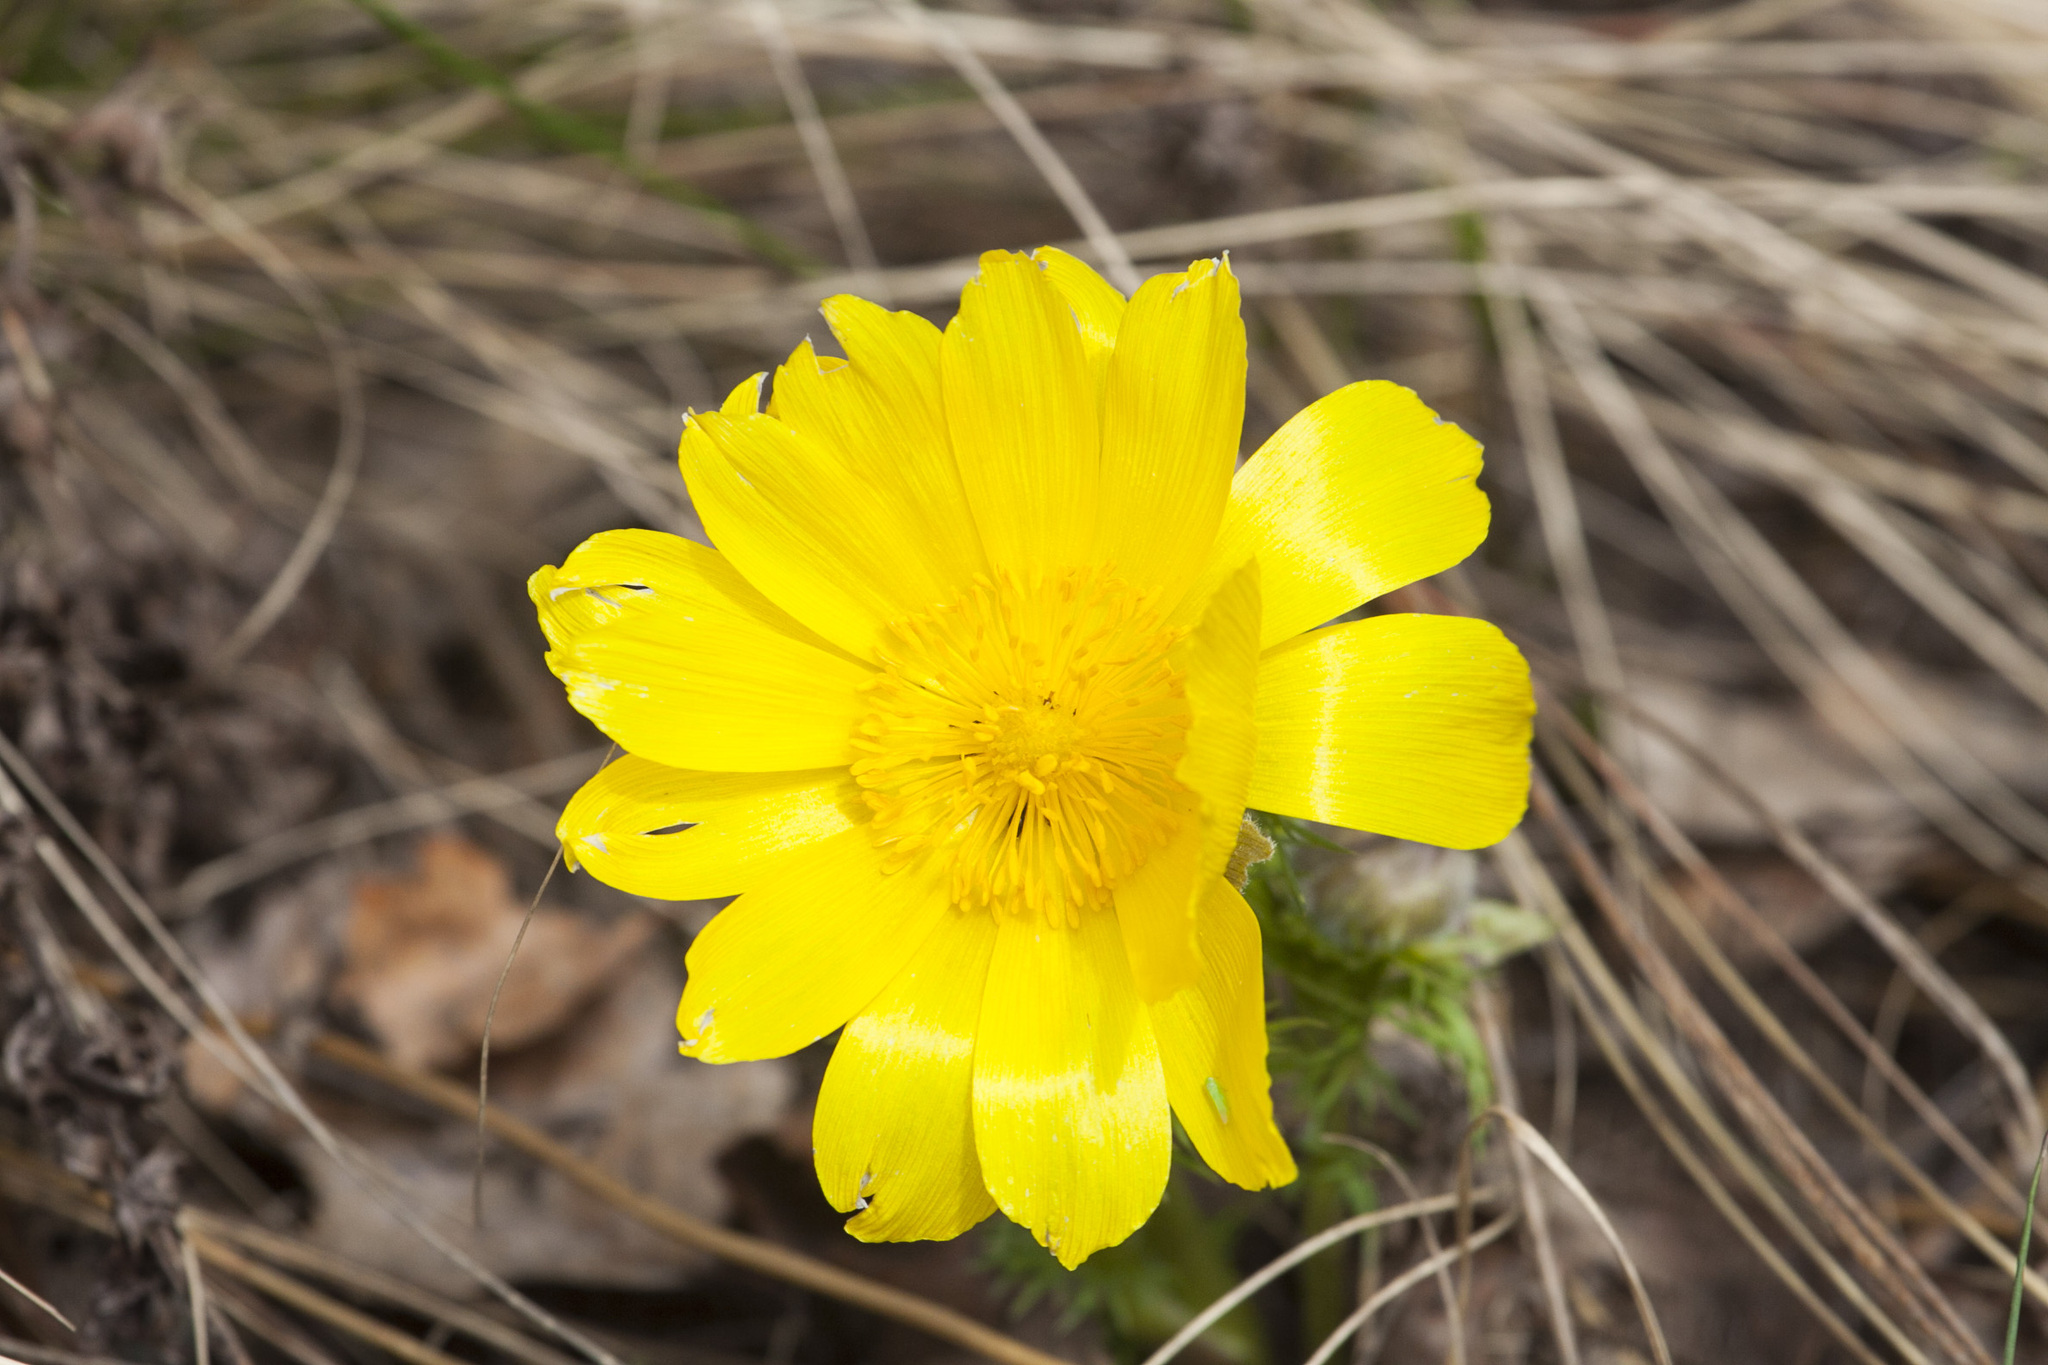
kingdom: Plantae
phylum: Tracheophyta
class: Magnoliopsida
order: Ranunculales
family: Ranunculaceae
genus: Adonis
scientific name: Adonis vernalis
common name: Yellow pheasants-eye
